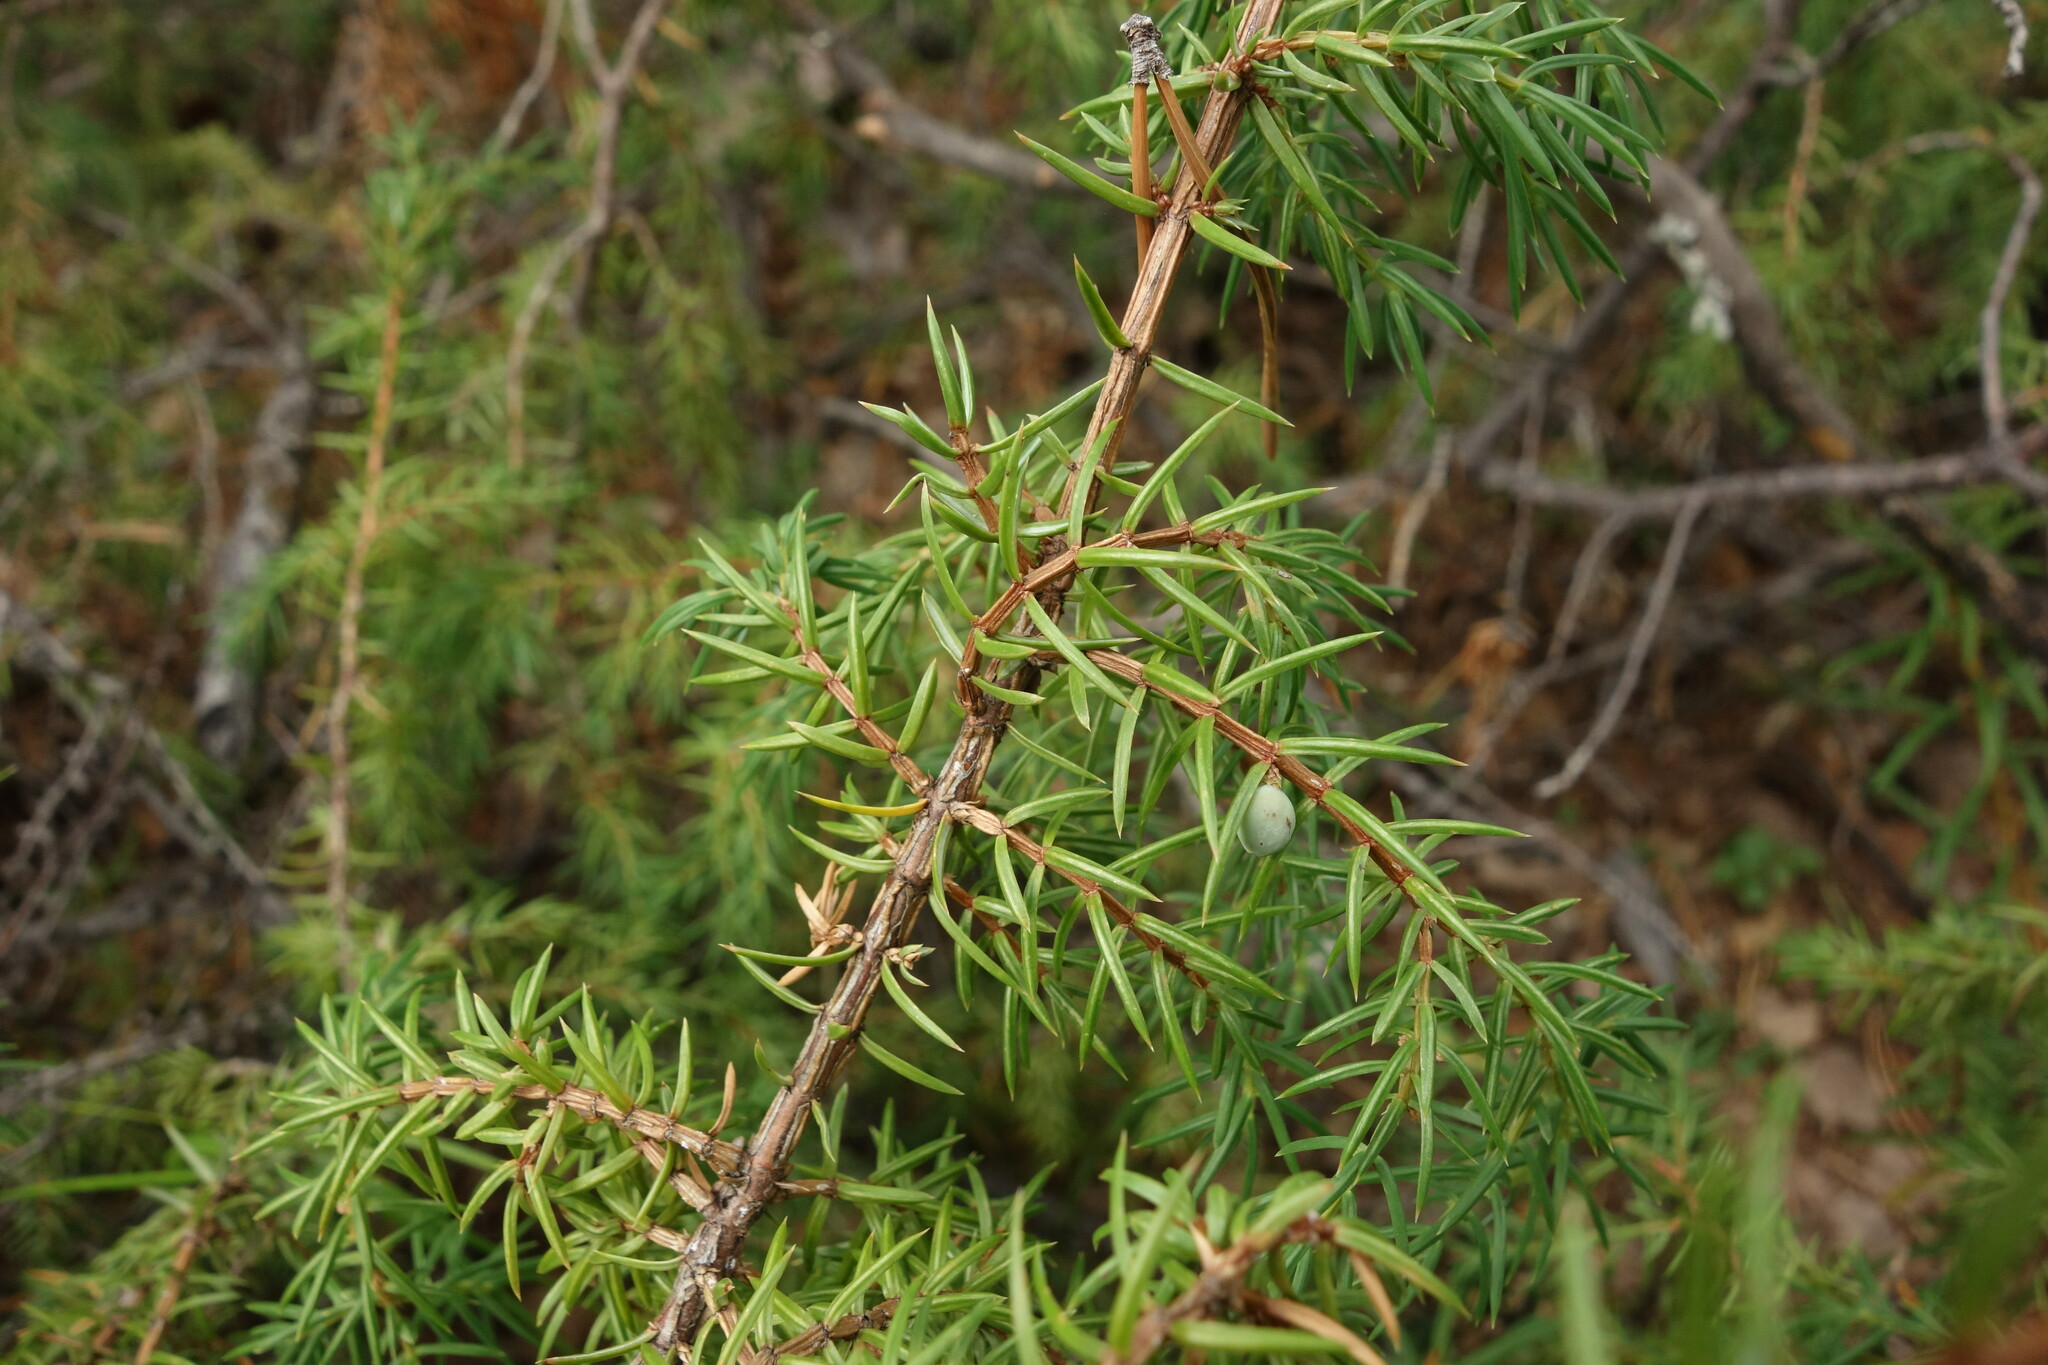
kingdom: Plantae
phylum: Tracheophyta
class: Pinopsida
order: Pinales
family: Cupressaceae
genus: Juniperus
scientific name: Juniperus communis
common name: Common juniper
